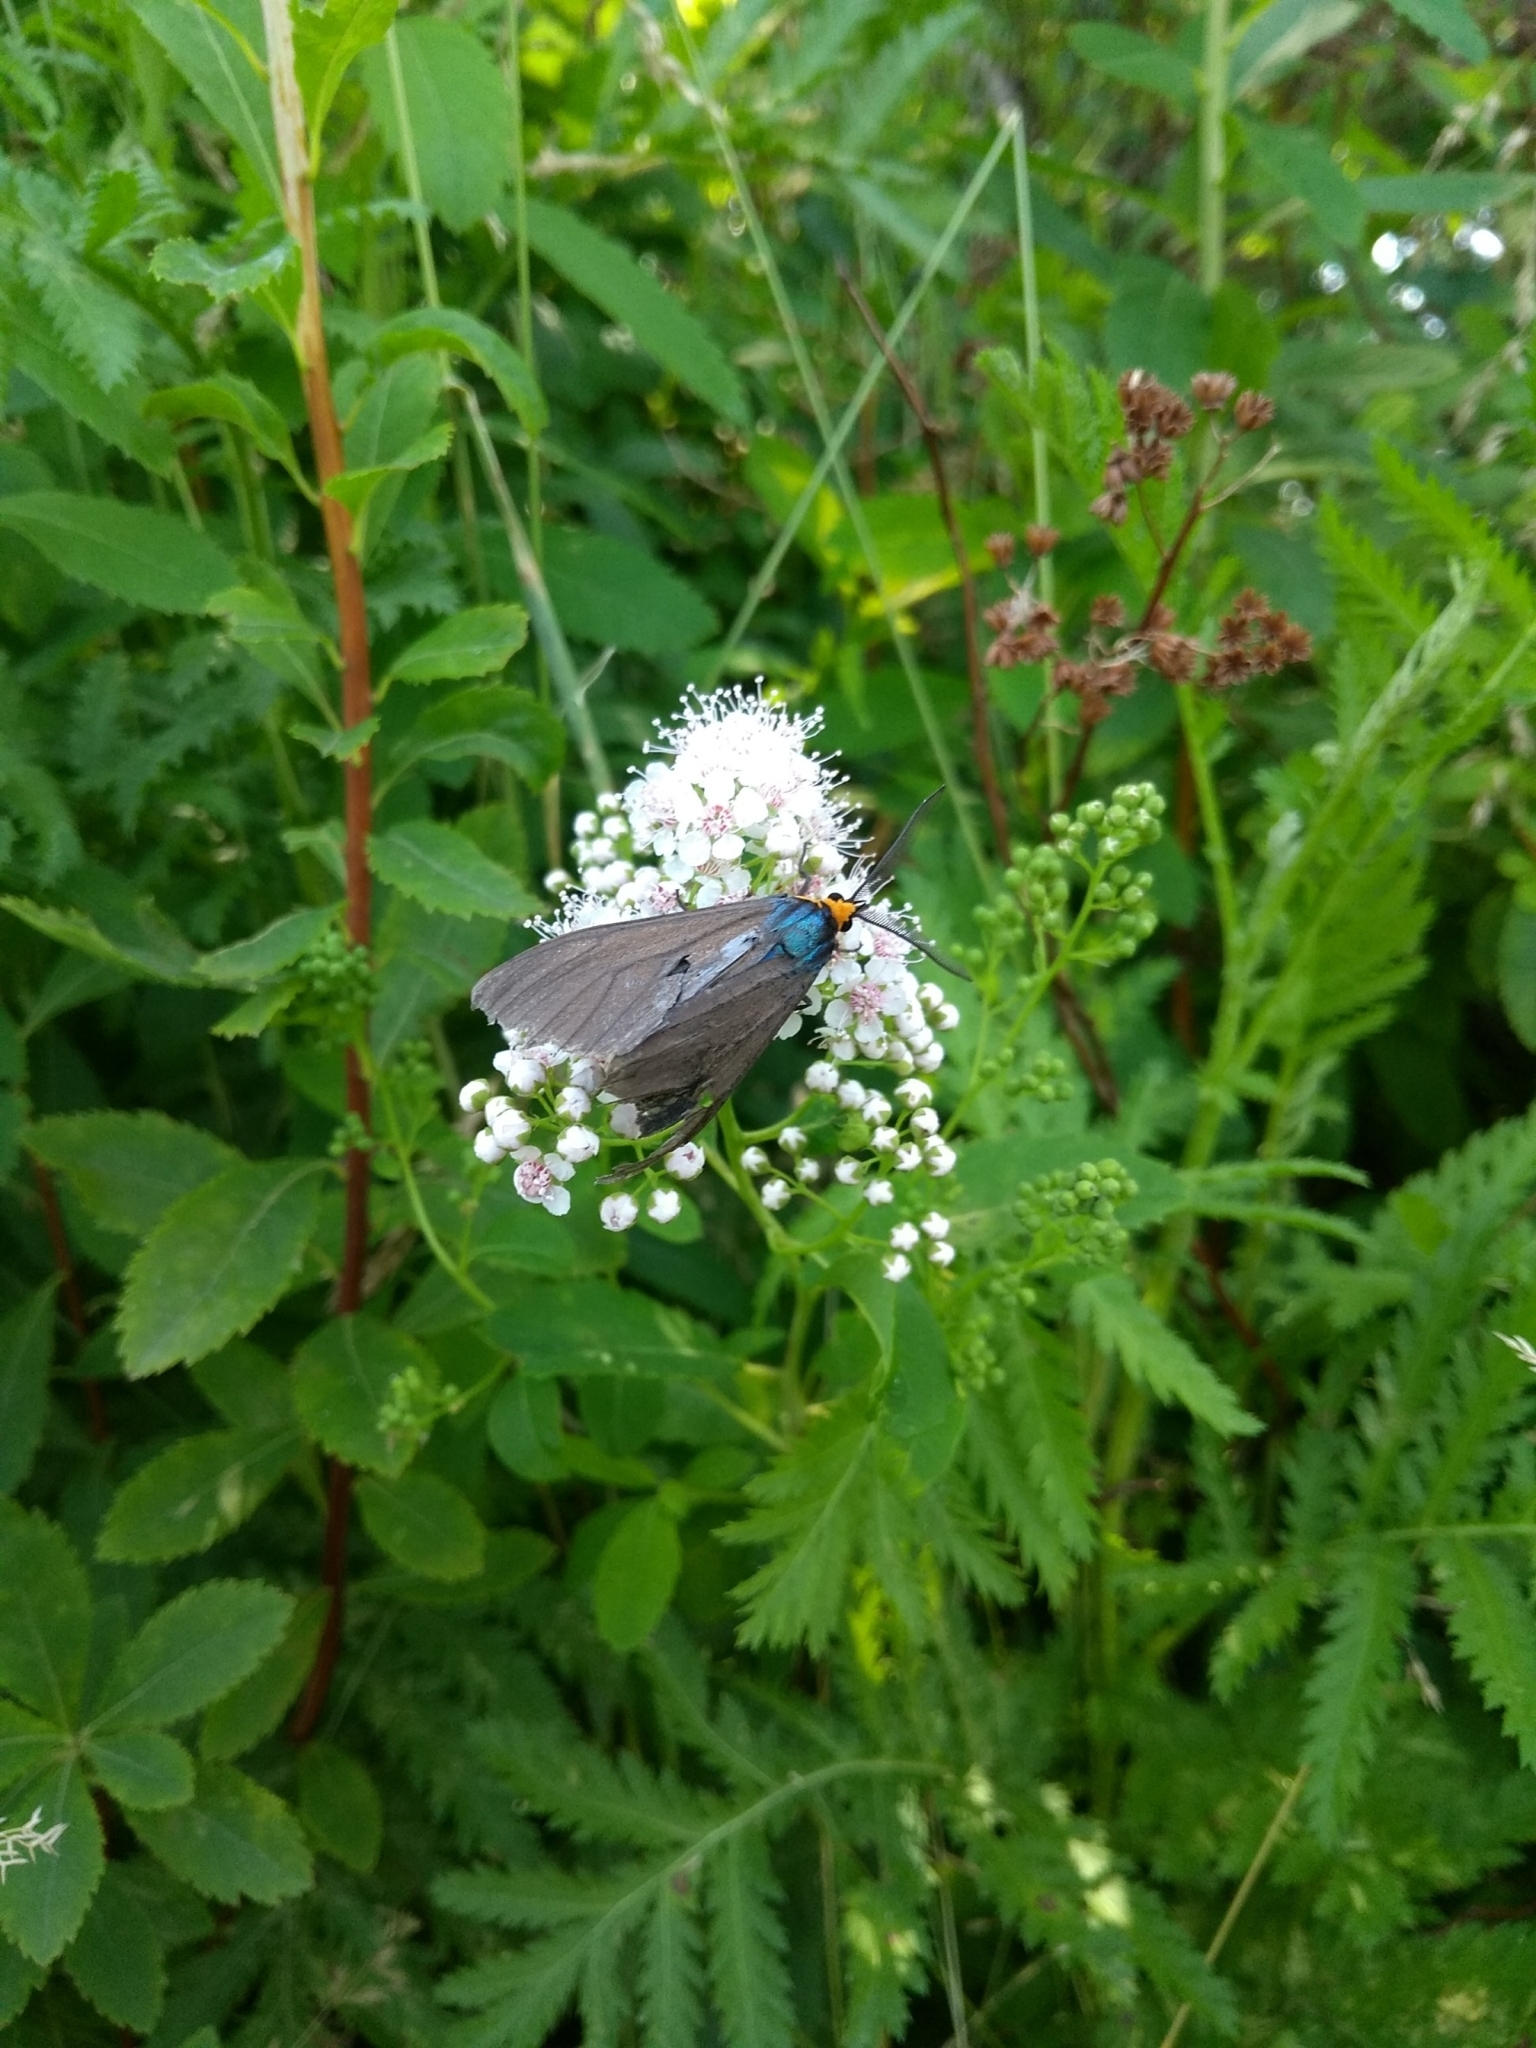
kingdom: Animalia
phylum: Arthropoda
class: Insecta
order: Lepidoptera
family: Erebidae
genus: Ctenucha
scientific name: Ctenucha virginica
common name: Virginia ctenucha moth
